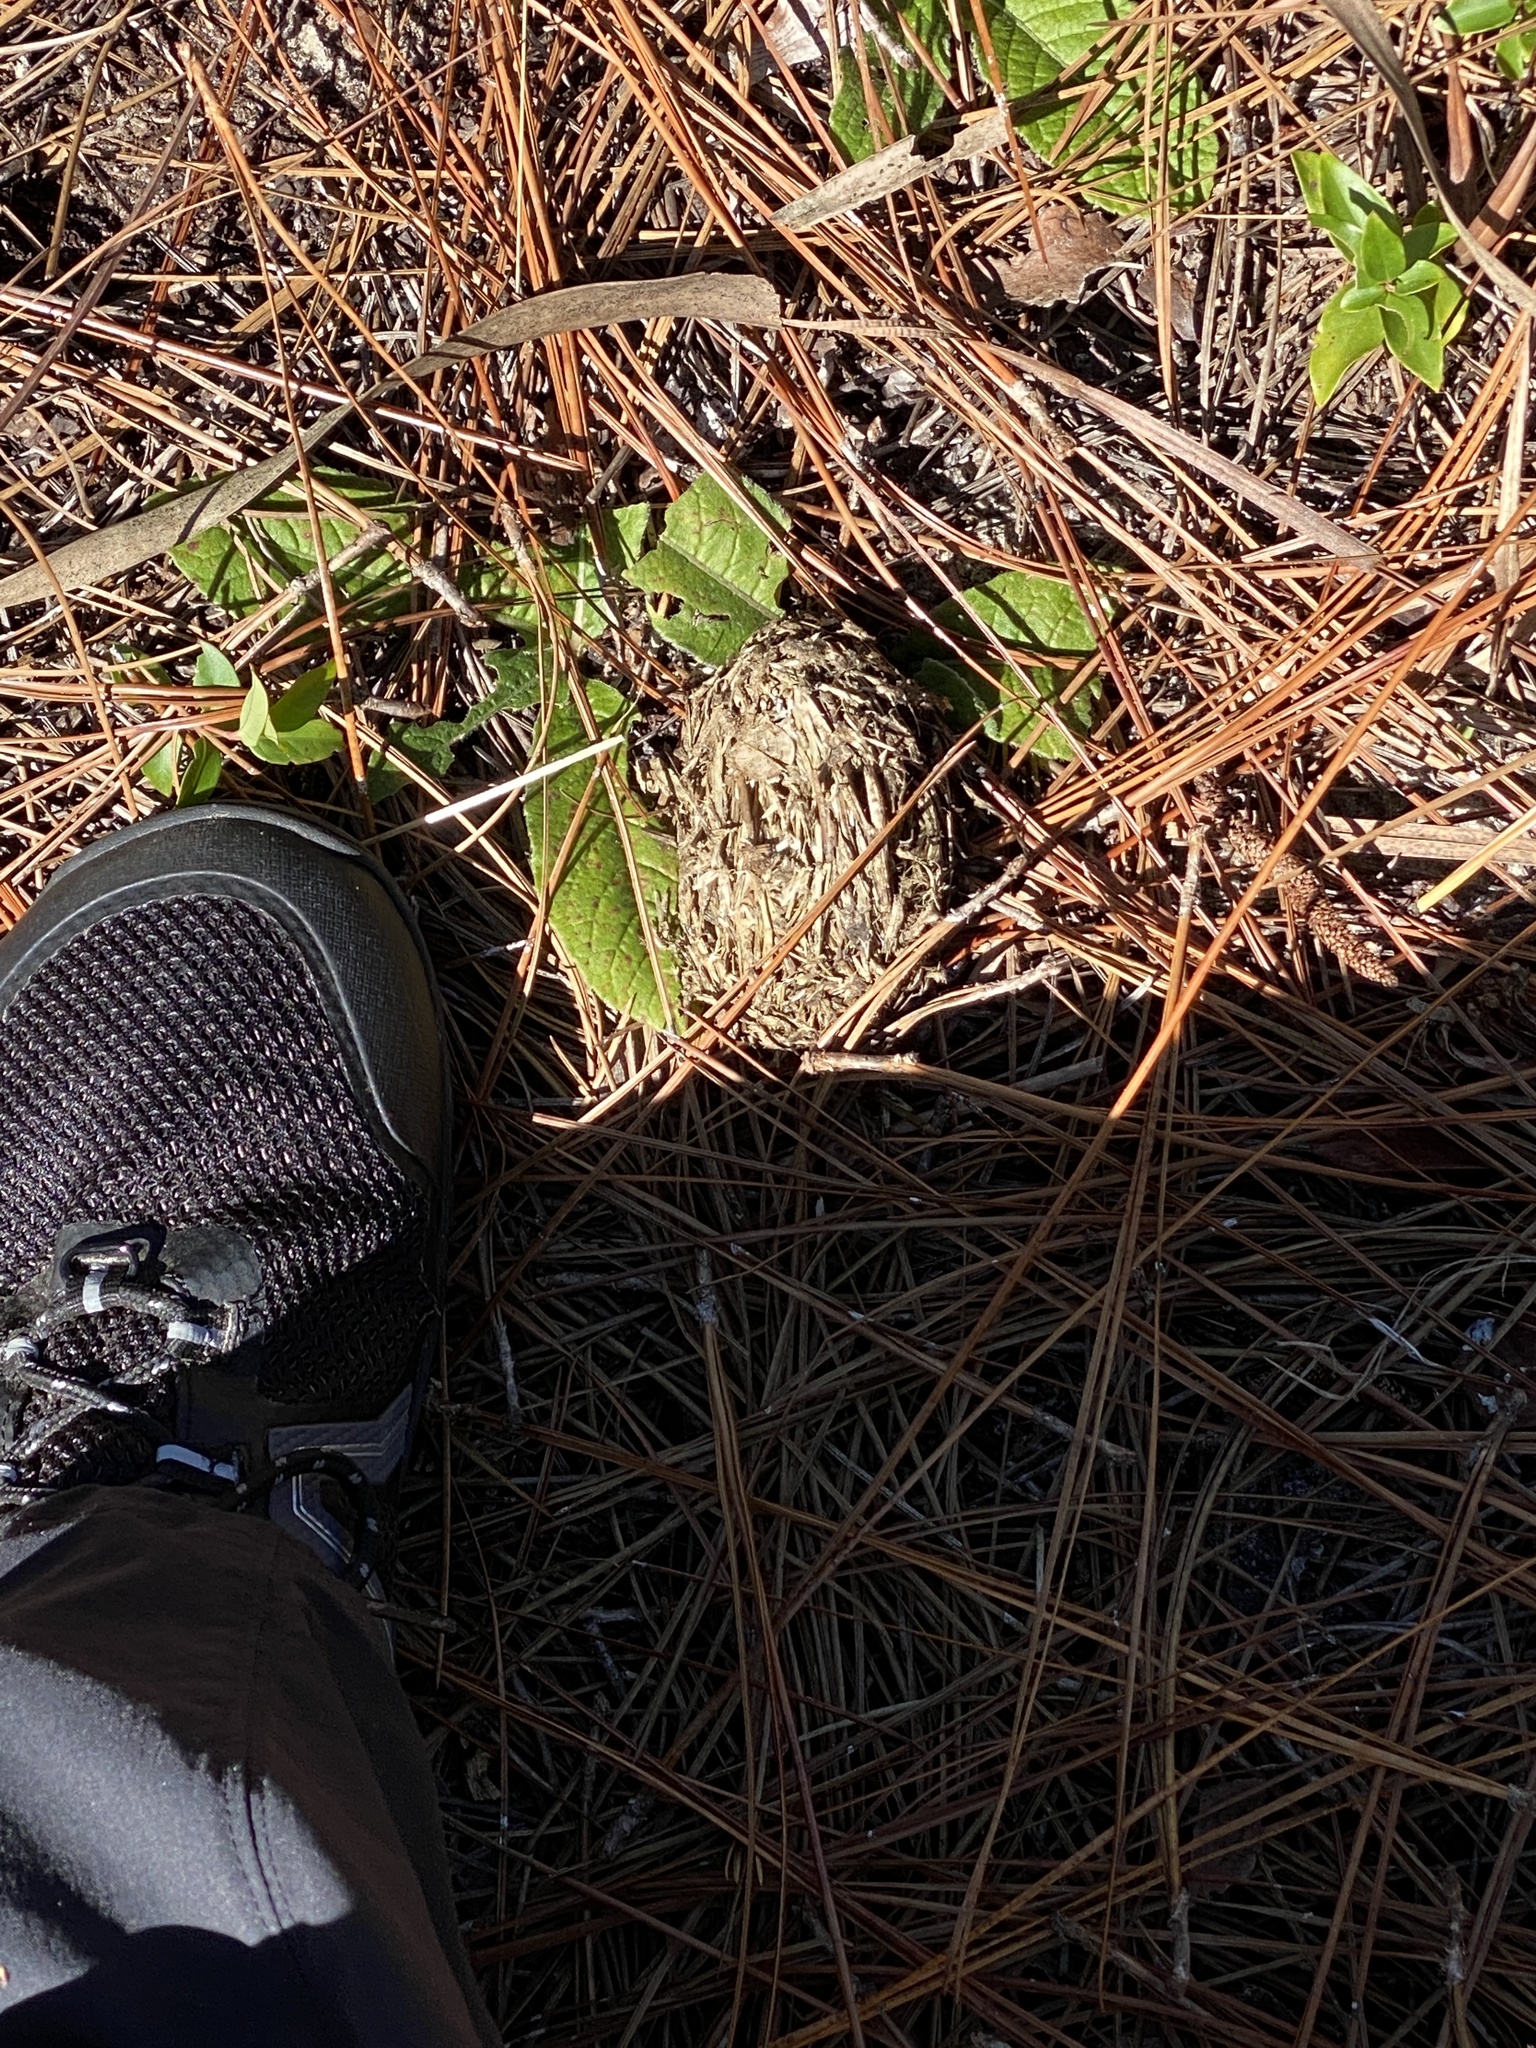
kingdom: Animalia
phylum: Chordata
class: Testudines
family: Testudinidae
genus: Gopherus
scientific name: Gopherus polyphemus
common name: Florida gopher tortoise
